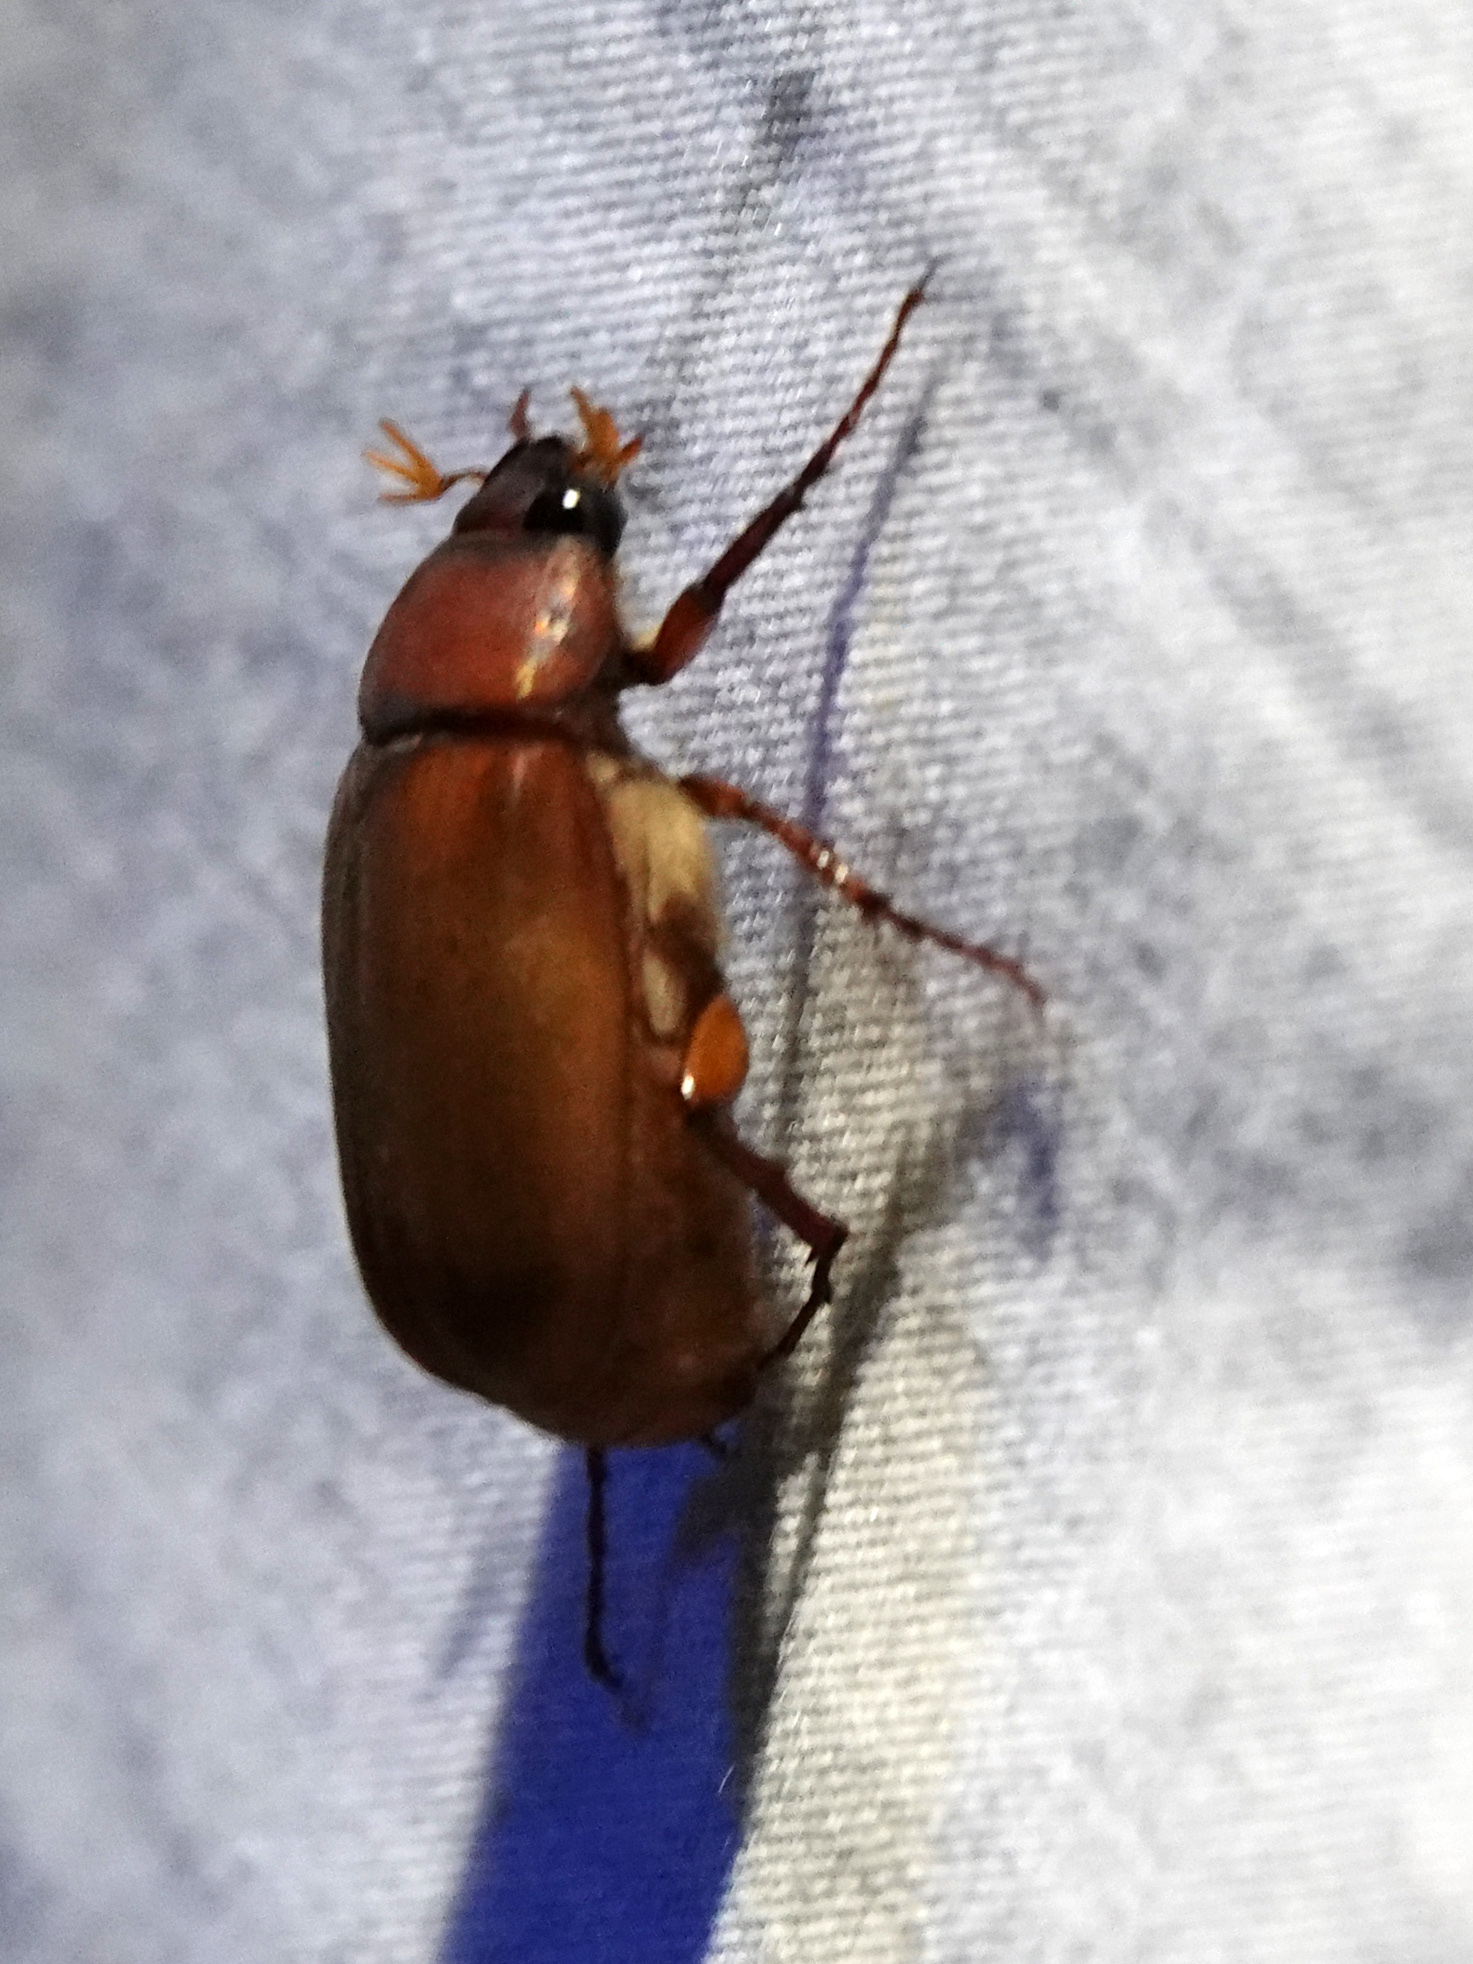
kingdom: Animalia
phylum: Arthropoda
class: Insecta
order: Coleoptera
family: Scarabaeidae
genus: Maladera
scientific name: Maladera formosae
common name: Asiatic garden beetle
